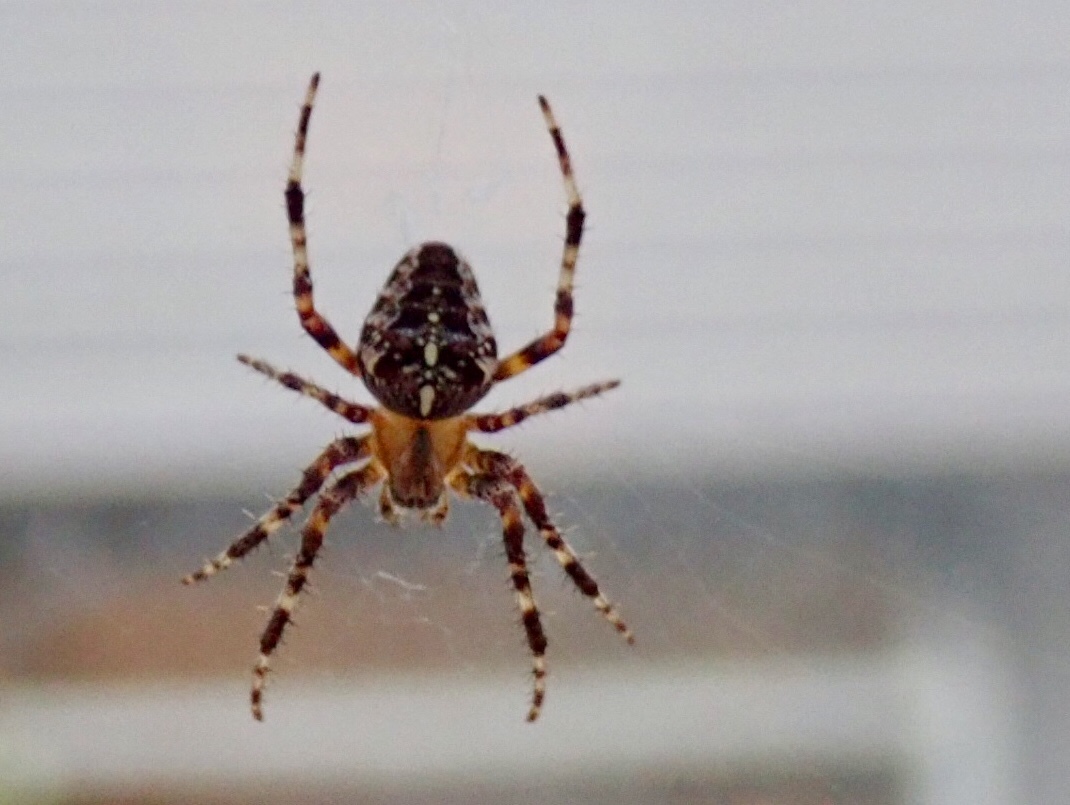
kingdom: Animalia
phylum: Arthropoda
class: Arachnida
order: Araneae
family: Araneidae
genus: Araneus
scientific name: Araneus diadematus
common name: Cross orbweaver
